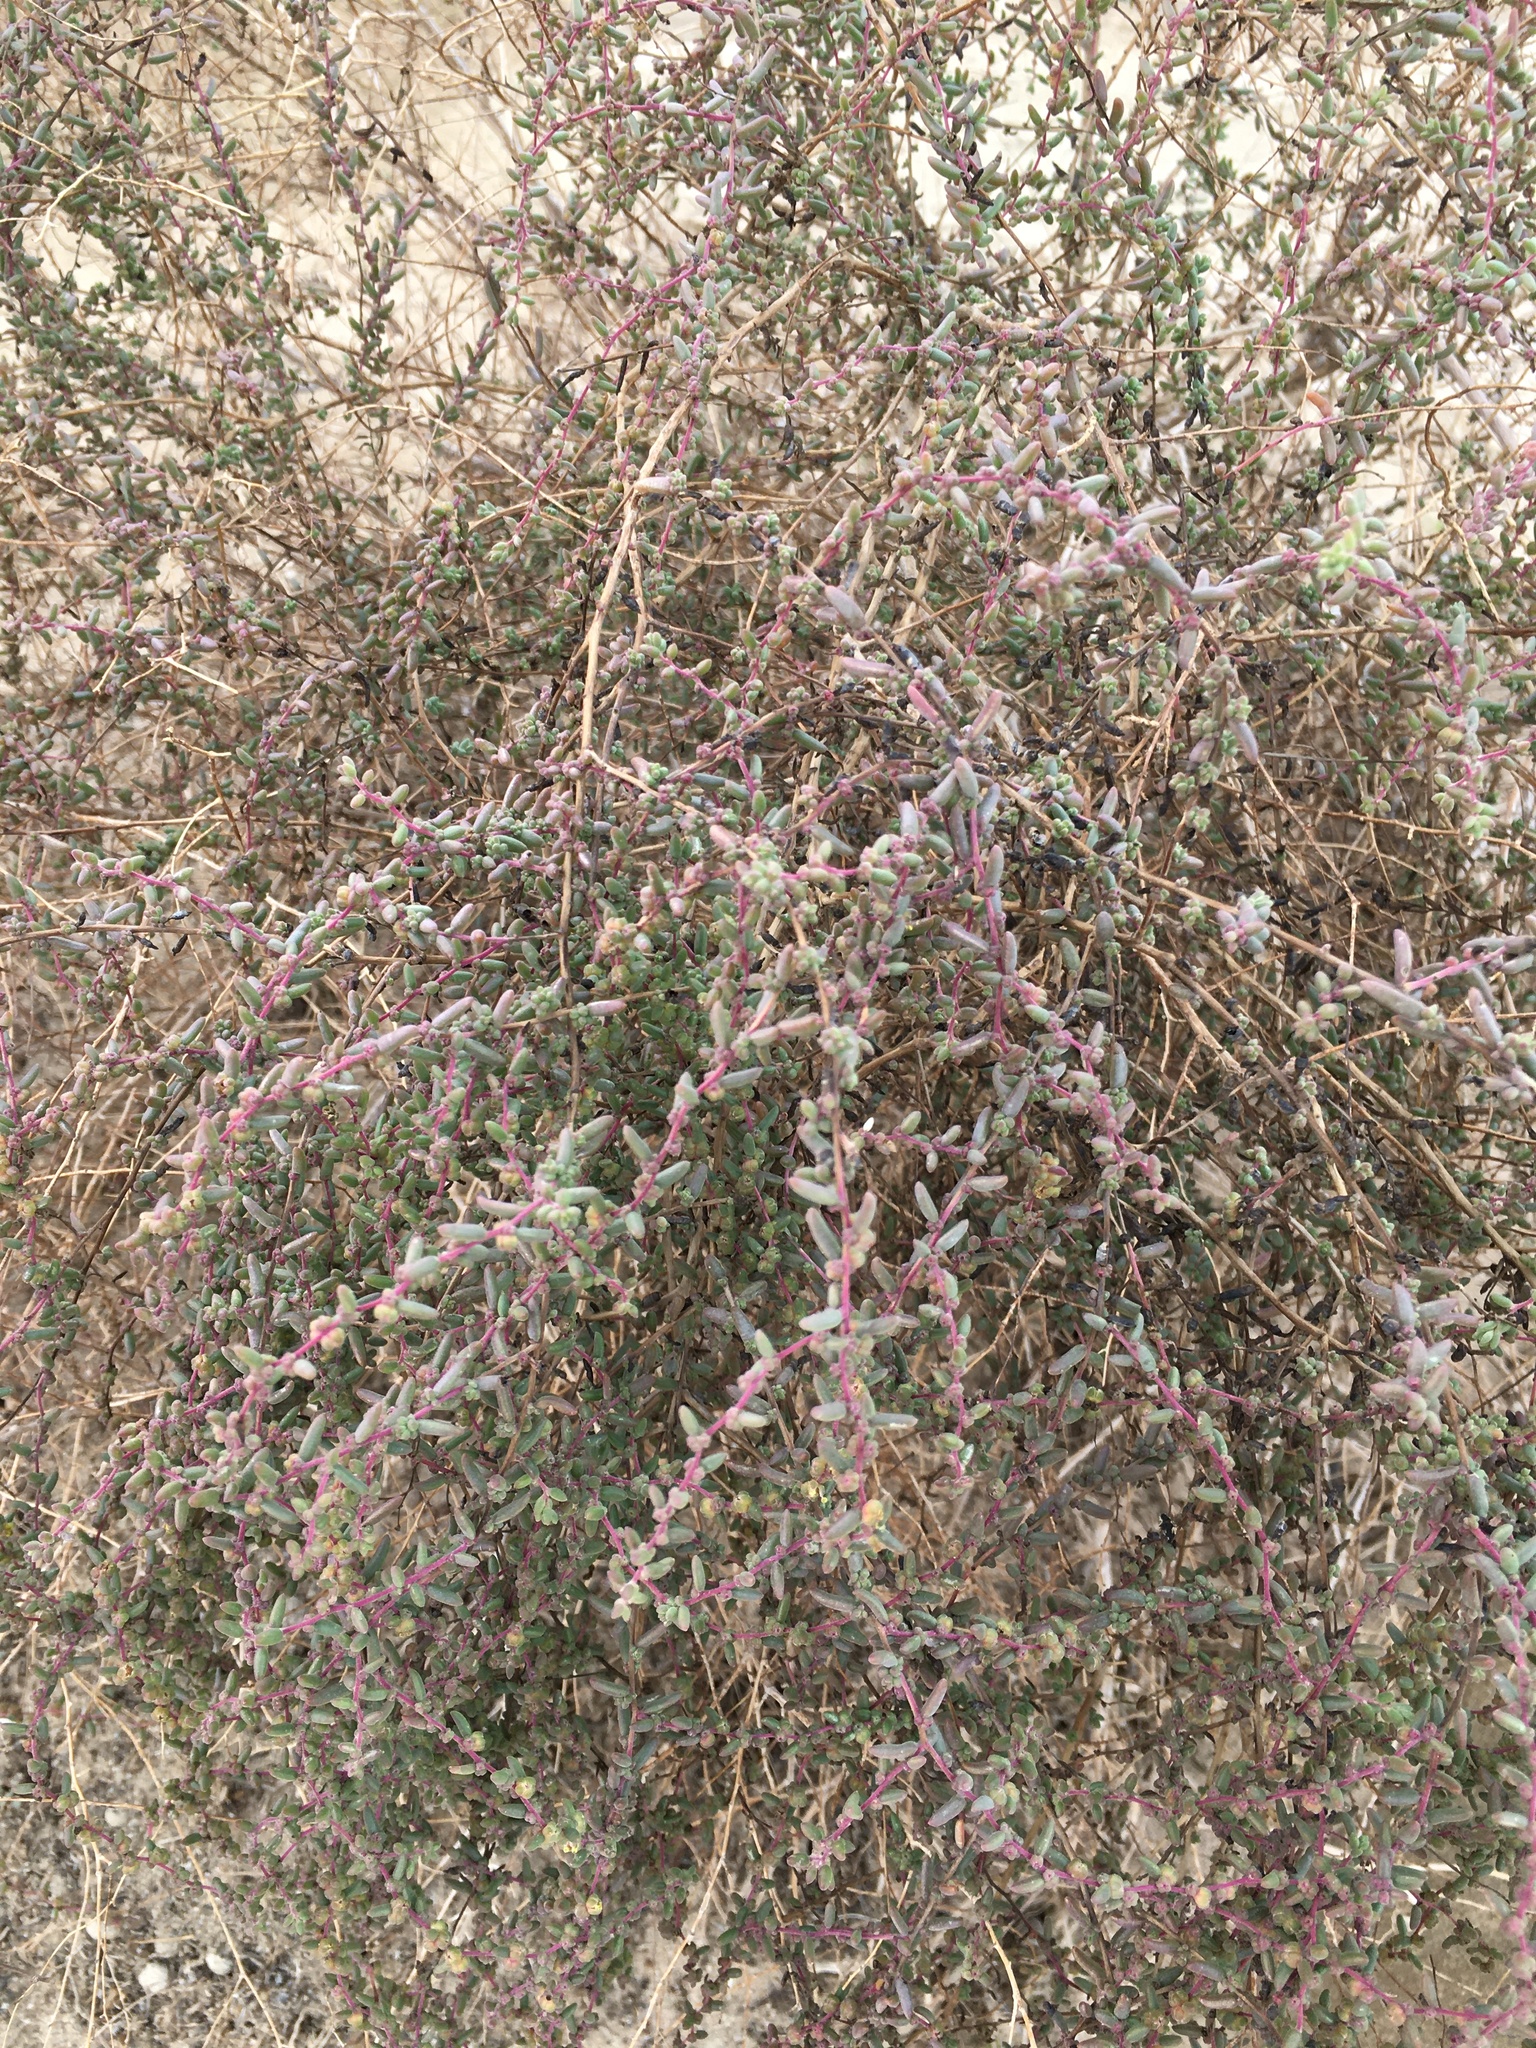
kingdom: Plantae
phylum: Tracheophyta
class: Magnoliopsida
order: Caryophyllales
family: Amaranthaceae
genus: Suaeda
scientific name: Suaeda nigra
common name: Bush seepweed
